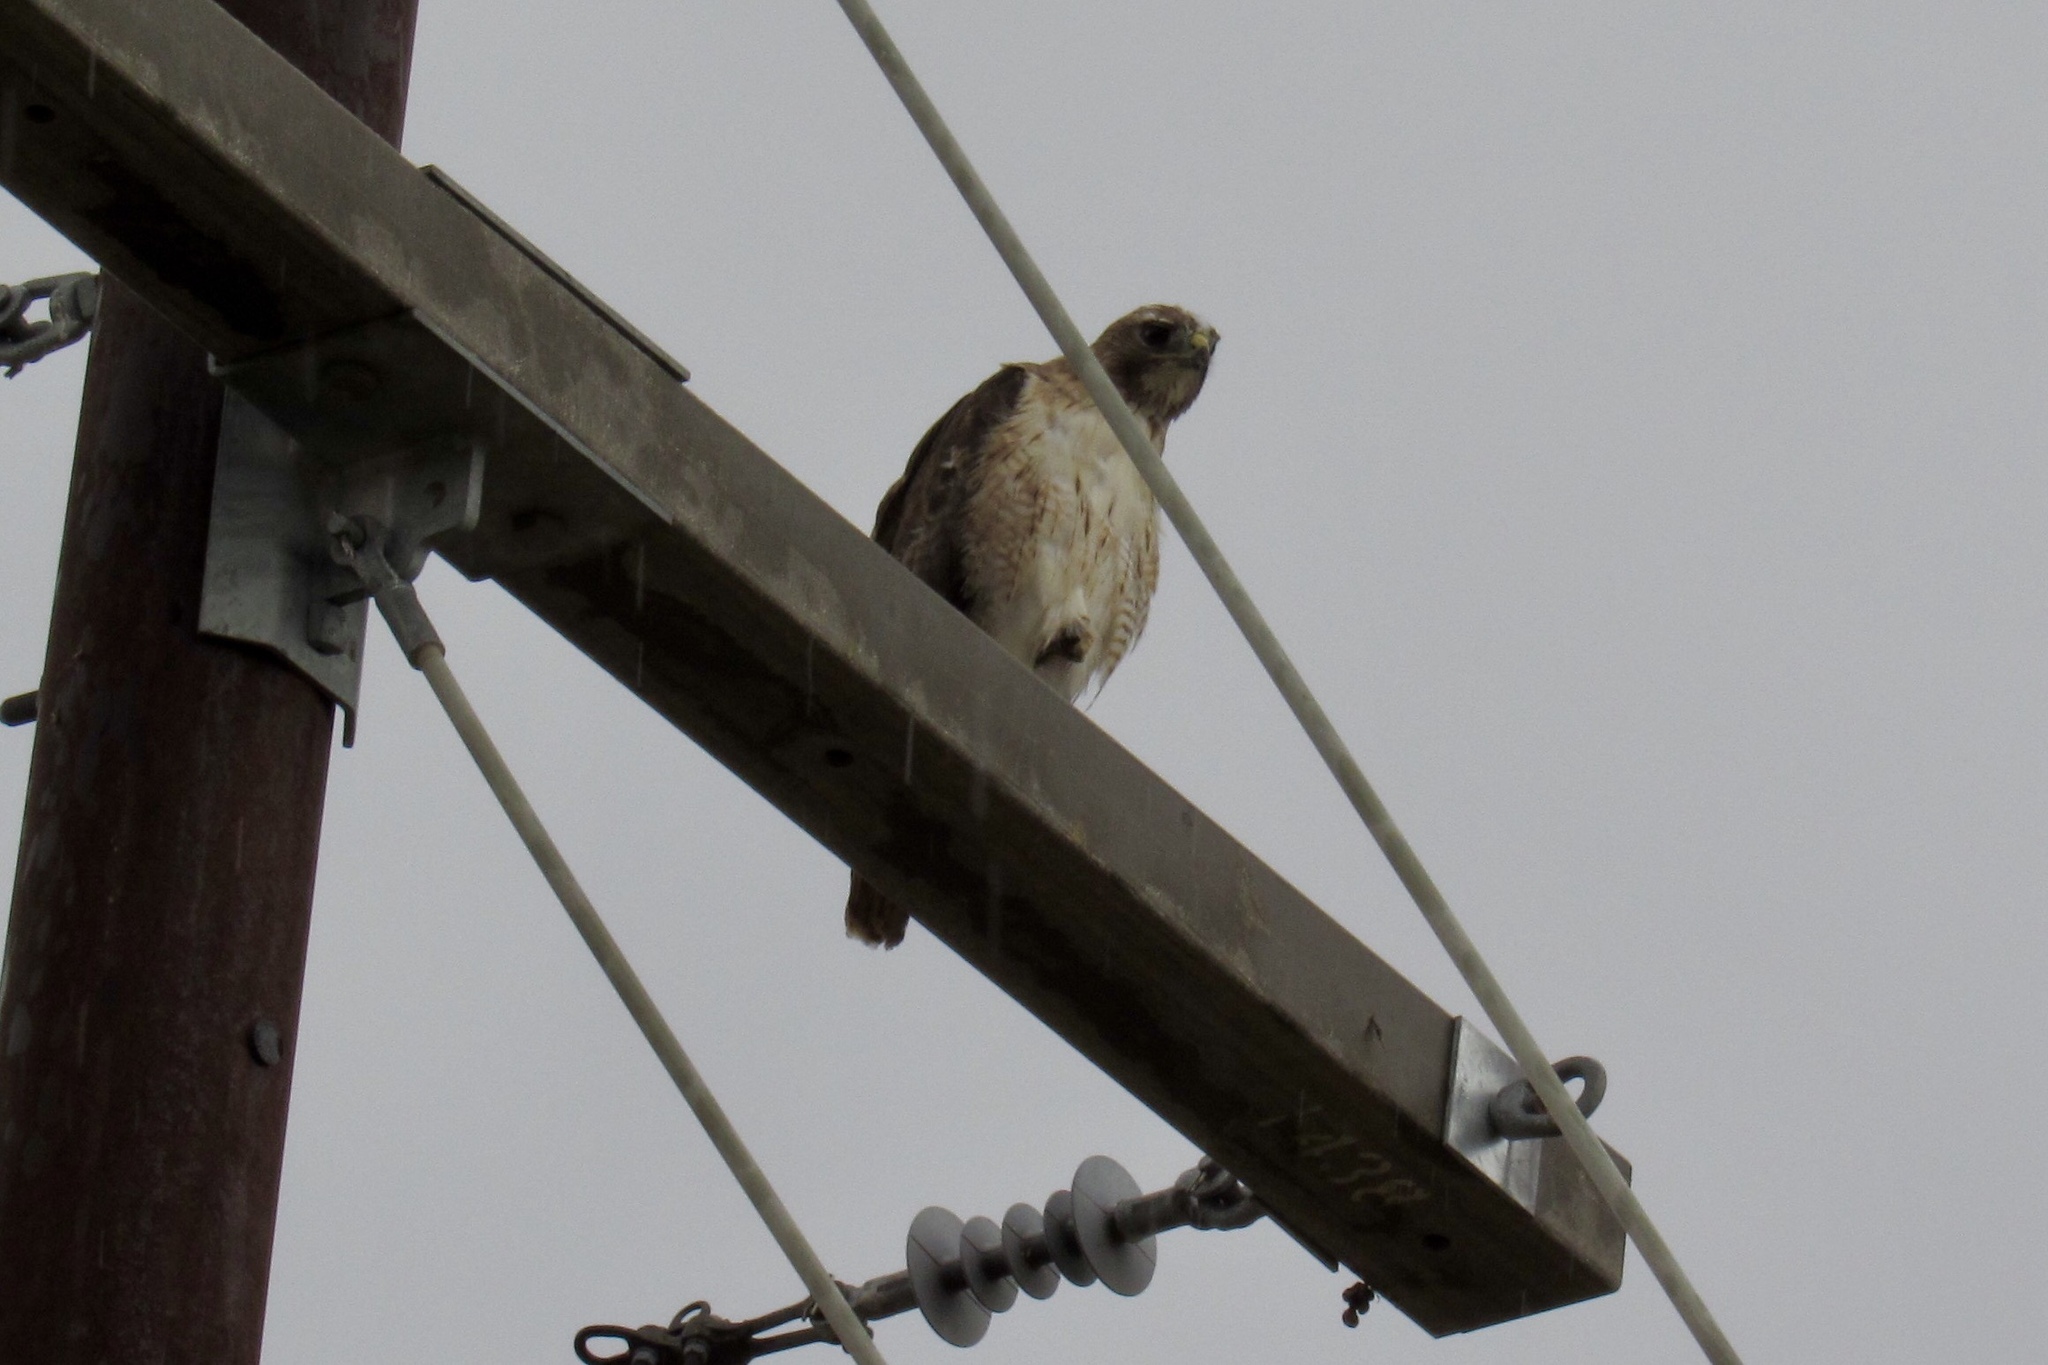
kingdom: Animalia
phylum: Chordata
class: Aves
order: Accipitriformes
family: Accipitridae
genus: Buteo
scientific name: Buteo jamaicensis
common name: Red-tailed hawk
